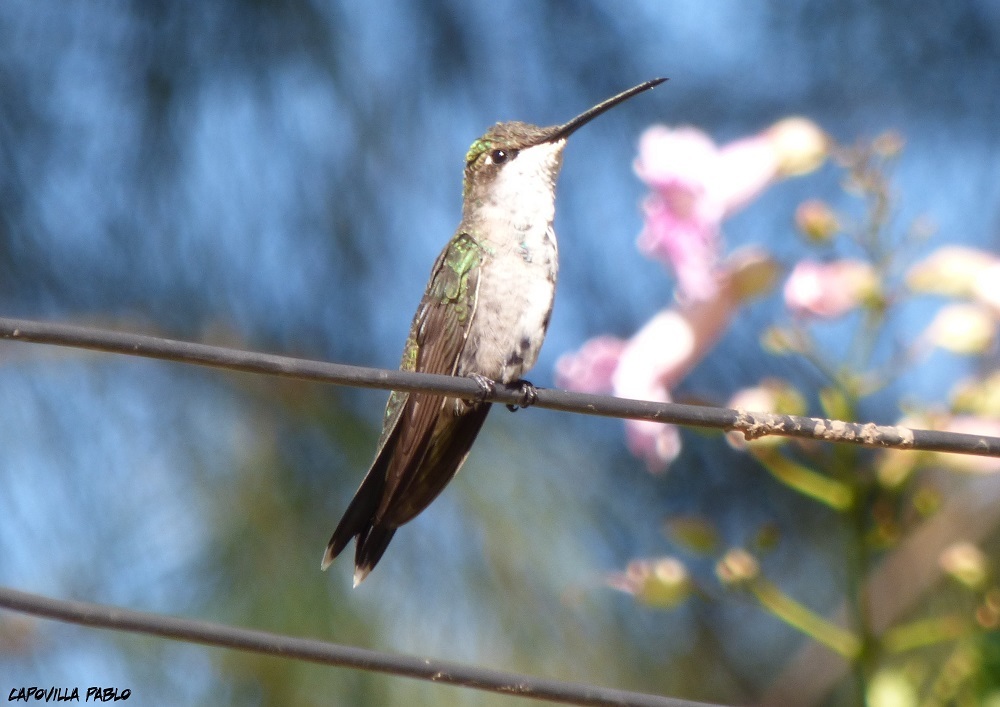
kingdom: Animalia
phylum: Chordata
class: Aves
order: Apodiformes
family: Trochilidae
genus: Heliomaster
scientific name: Heliomaster furcifer
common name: Blue-tufted starthroat
